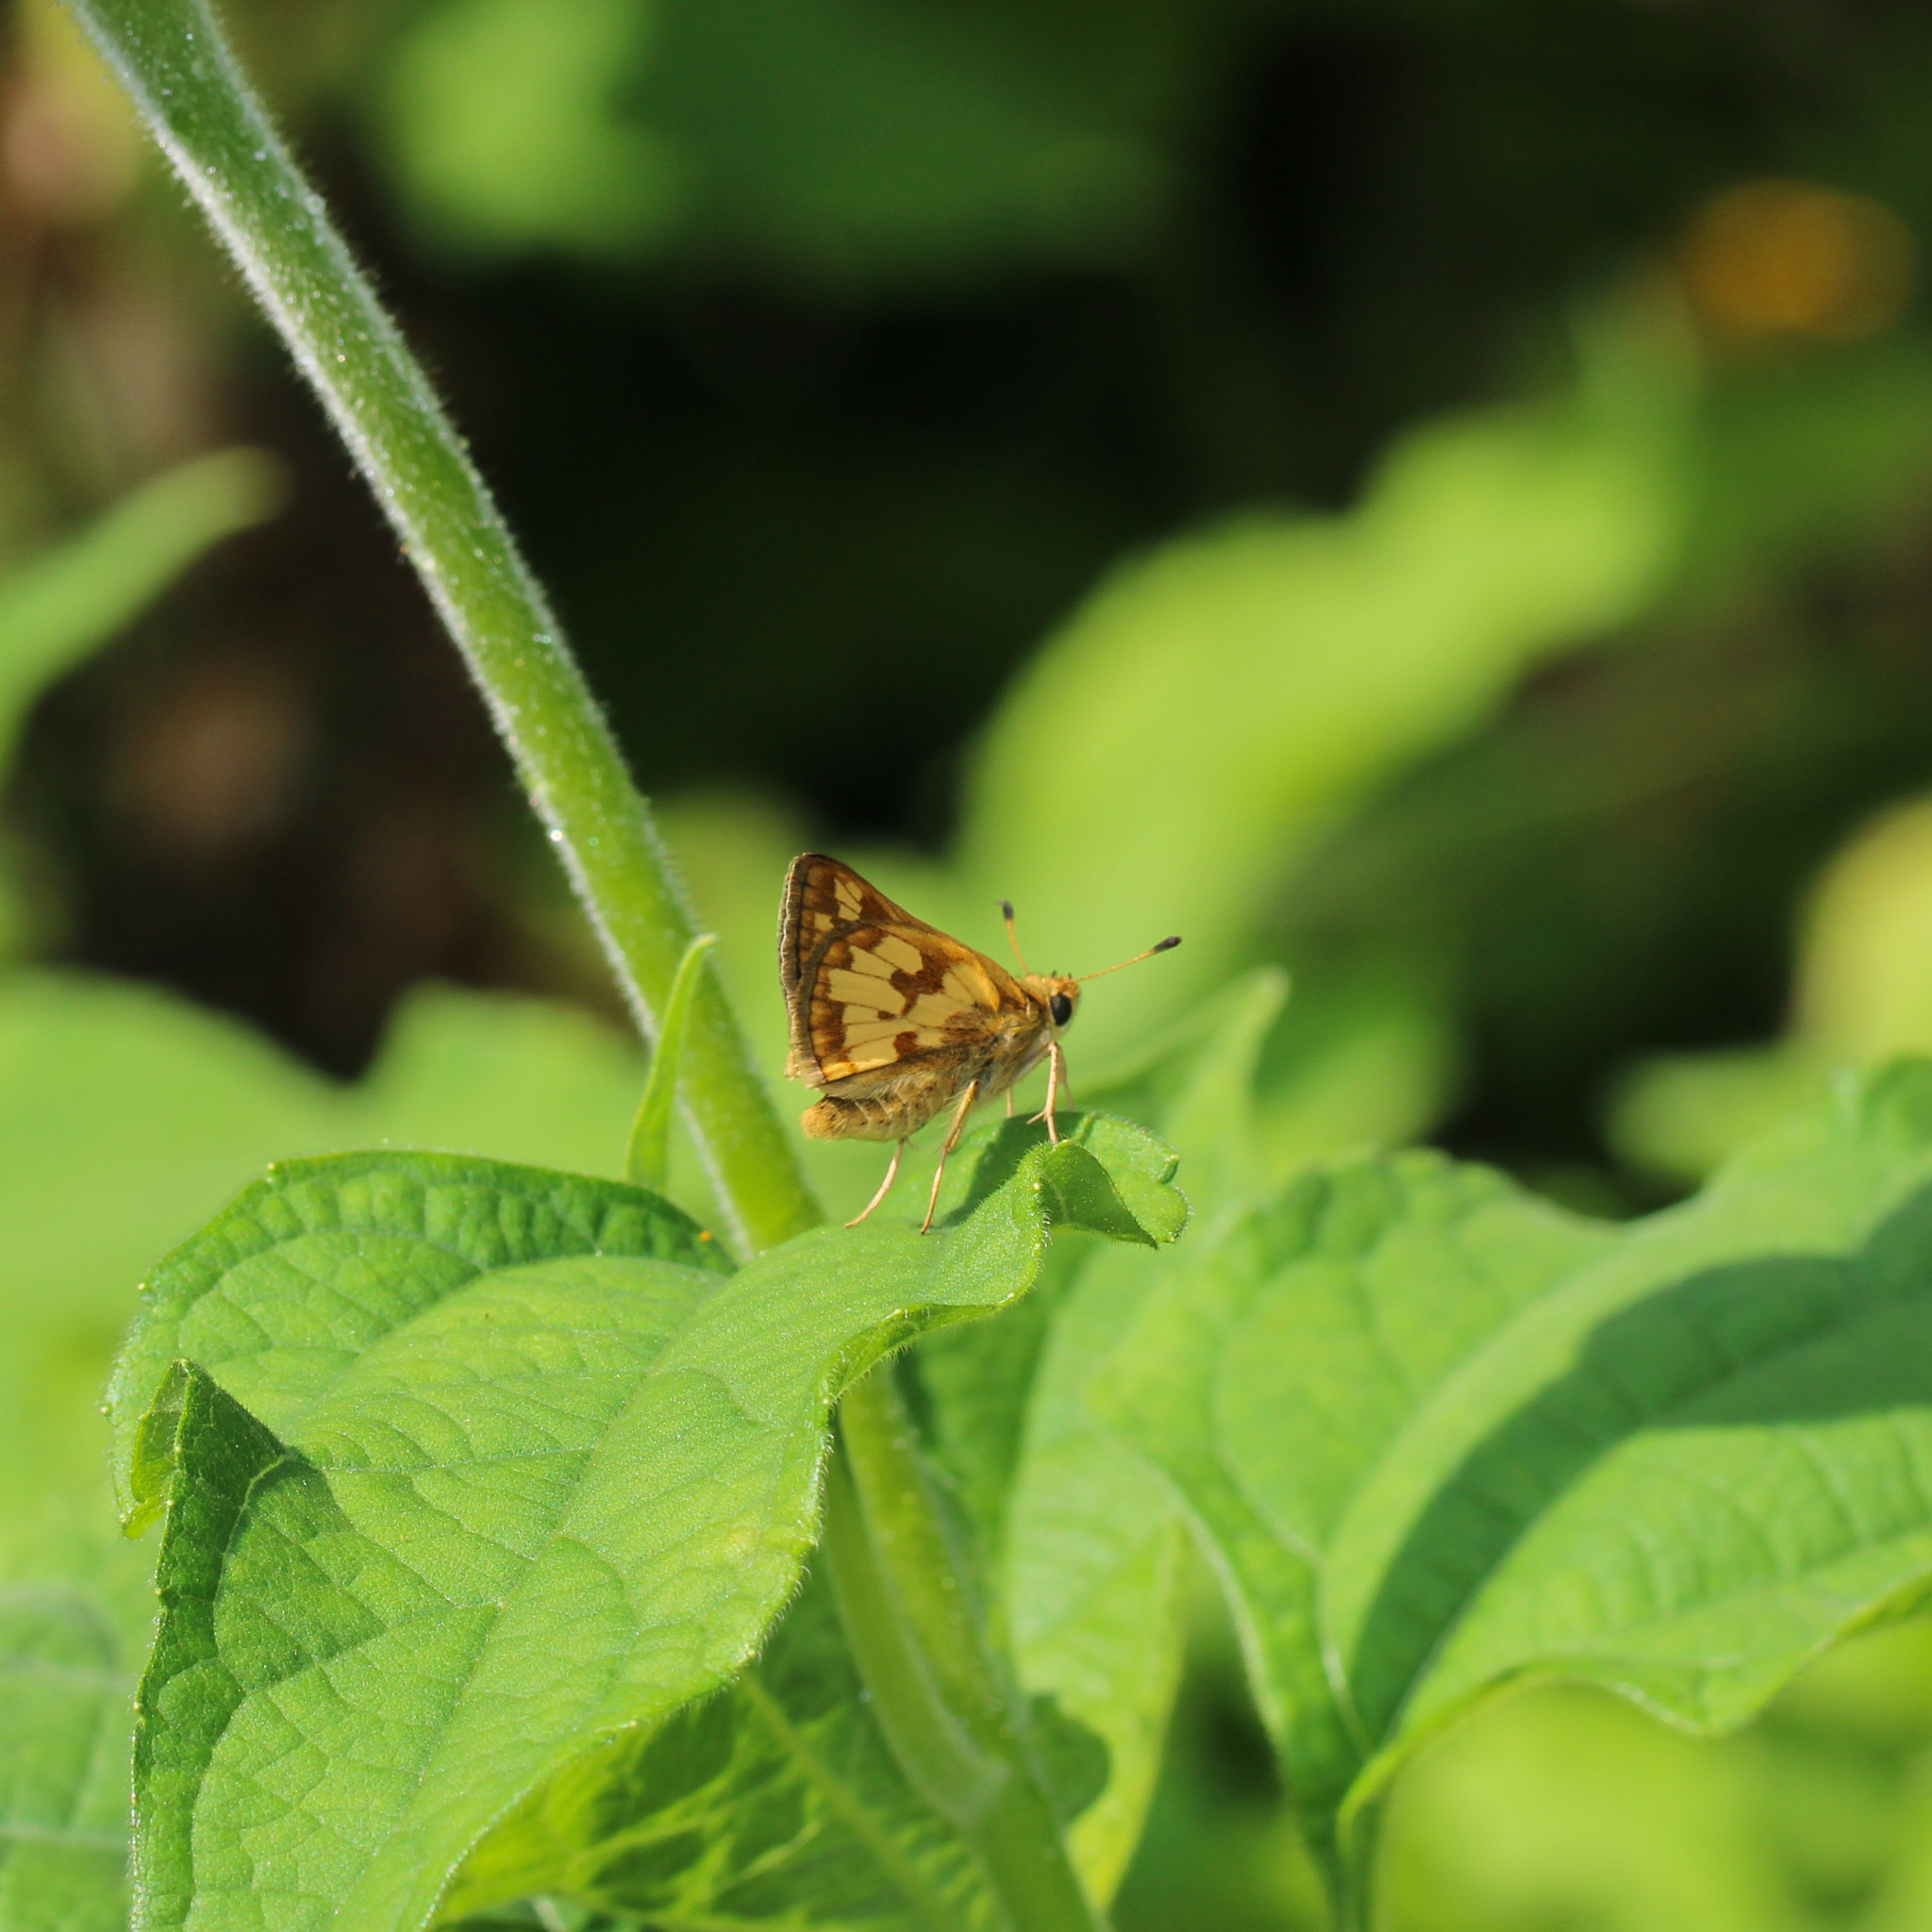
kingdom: Animalia
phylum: Arthropoda
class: Insecta
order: Lepidoptera
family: Hesperiidae
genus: Polites
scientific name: Polites coras
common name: Peck's skipper
